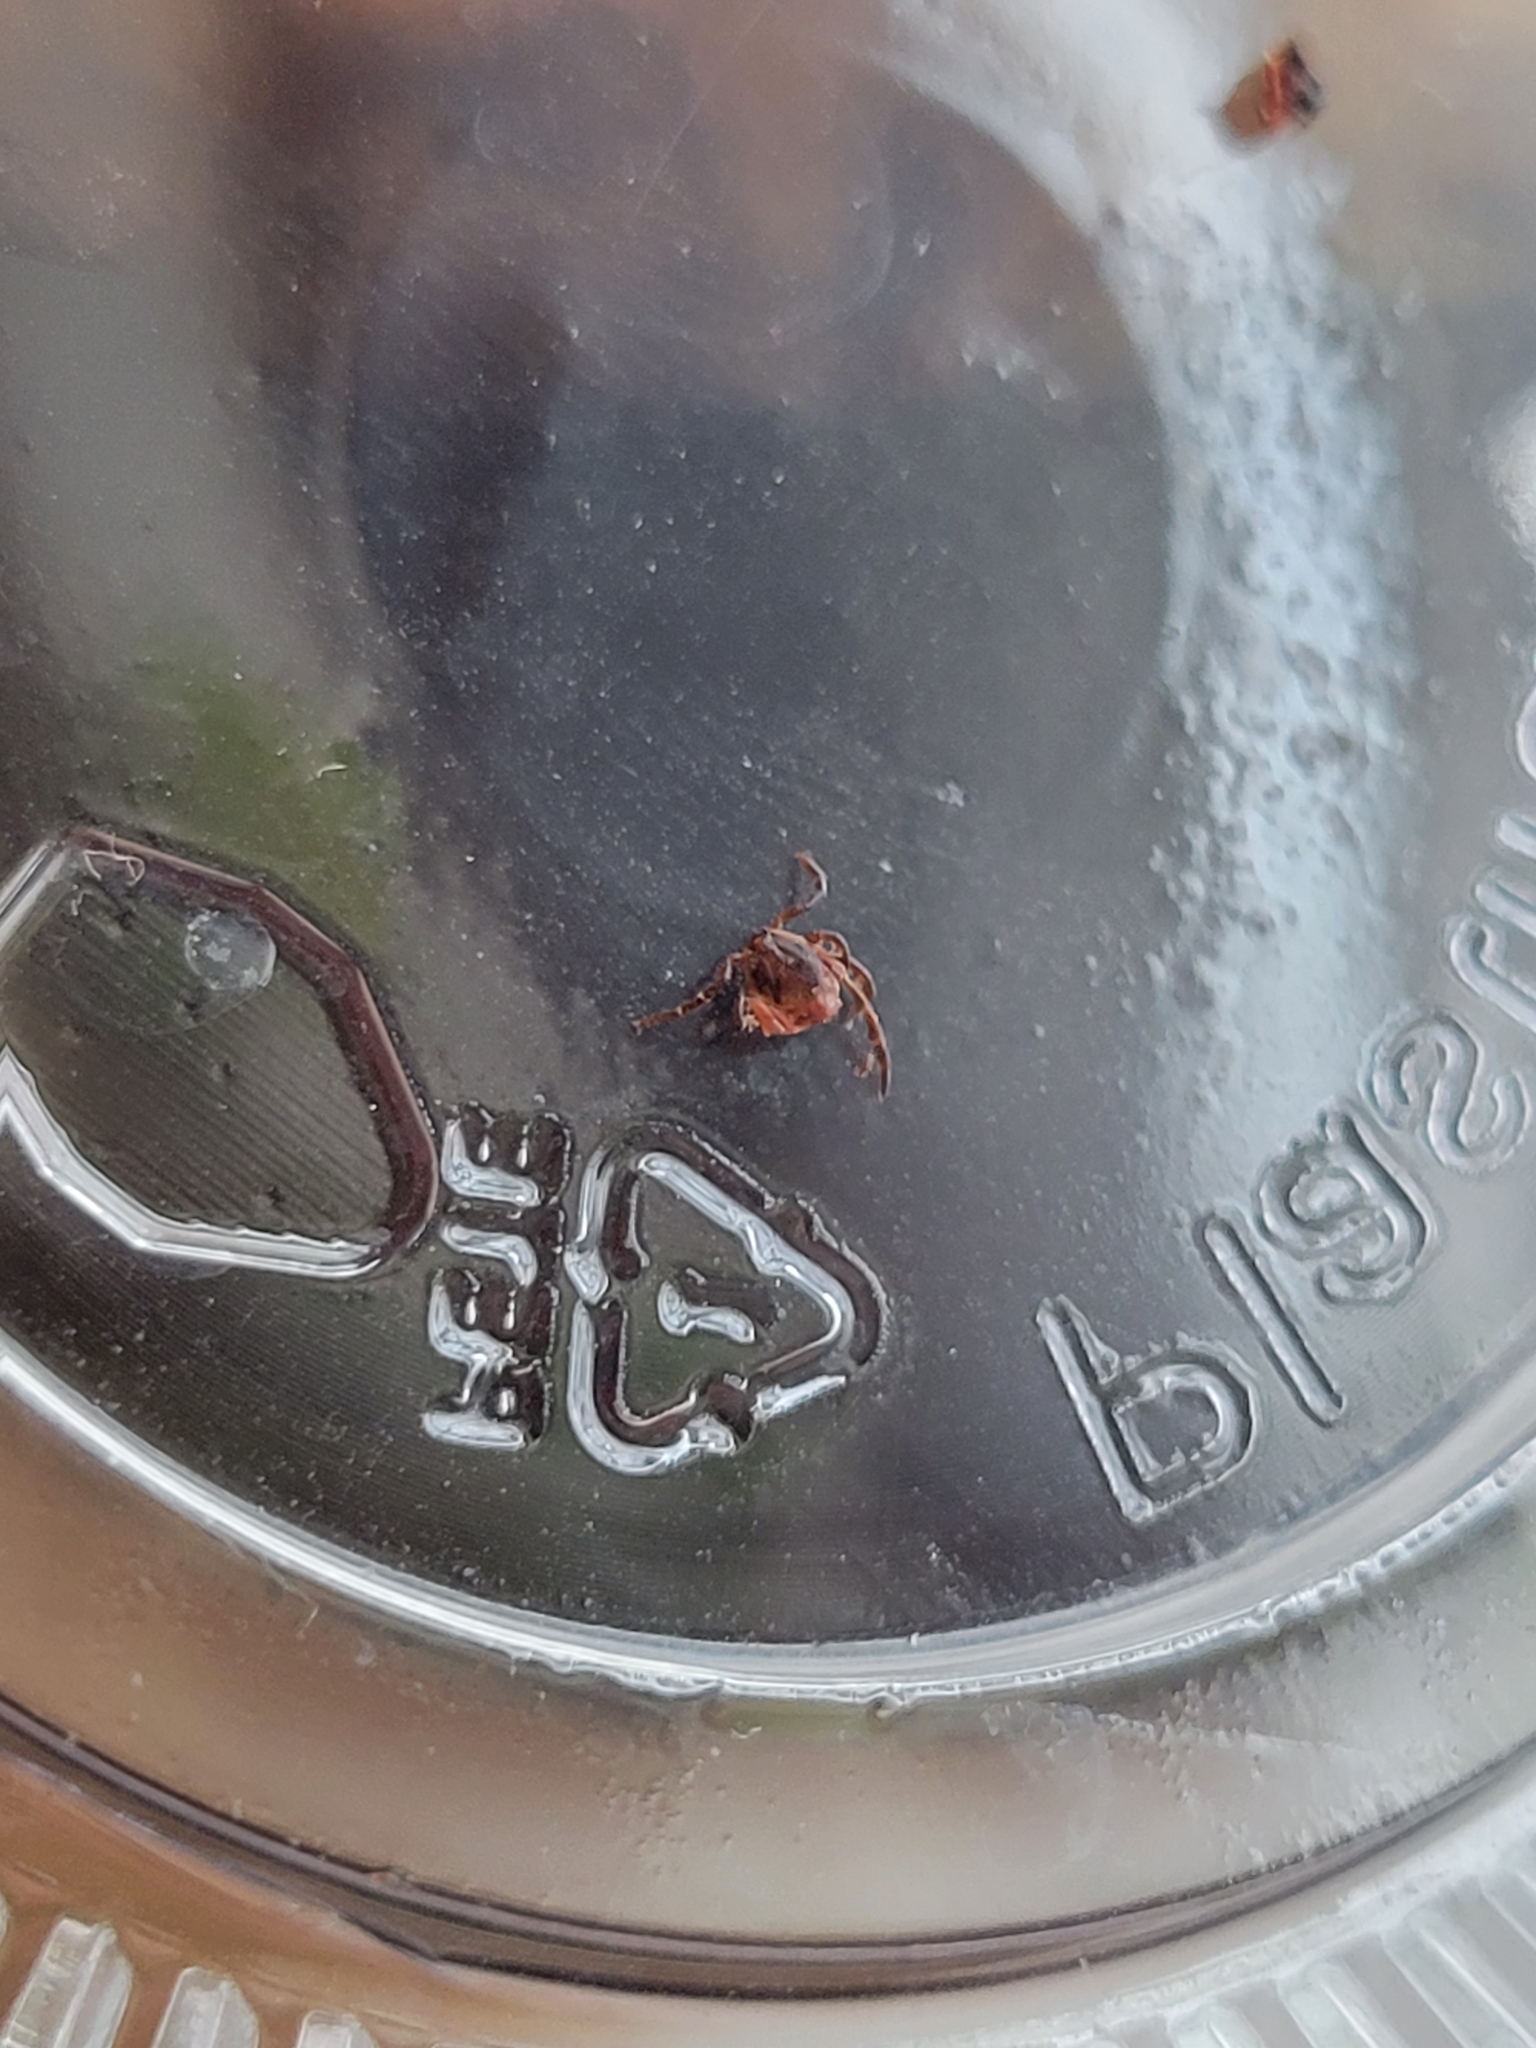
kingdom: Animalia
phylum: Arthropoda
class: Arachnida
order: Ixodida
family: Ixodidae
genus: Ixodes
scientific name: Ixodes scapularis
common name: Black legged tick
